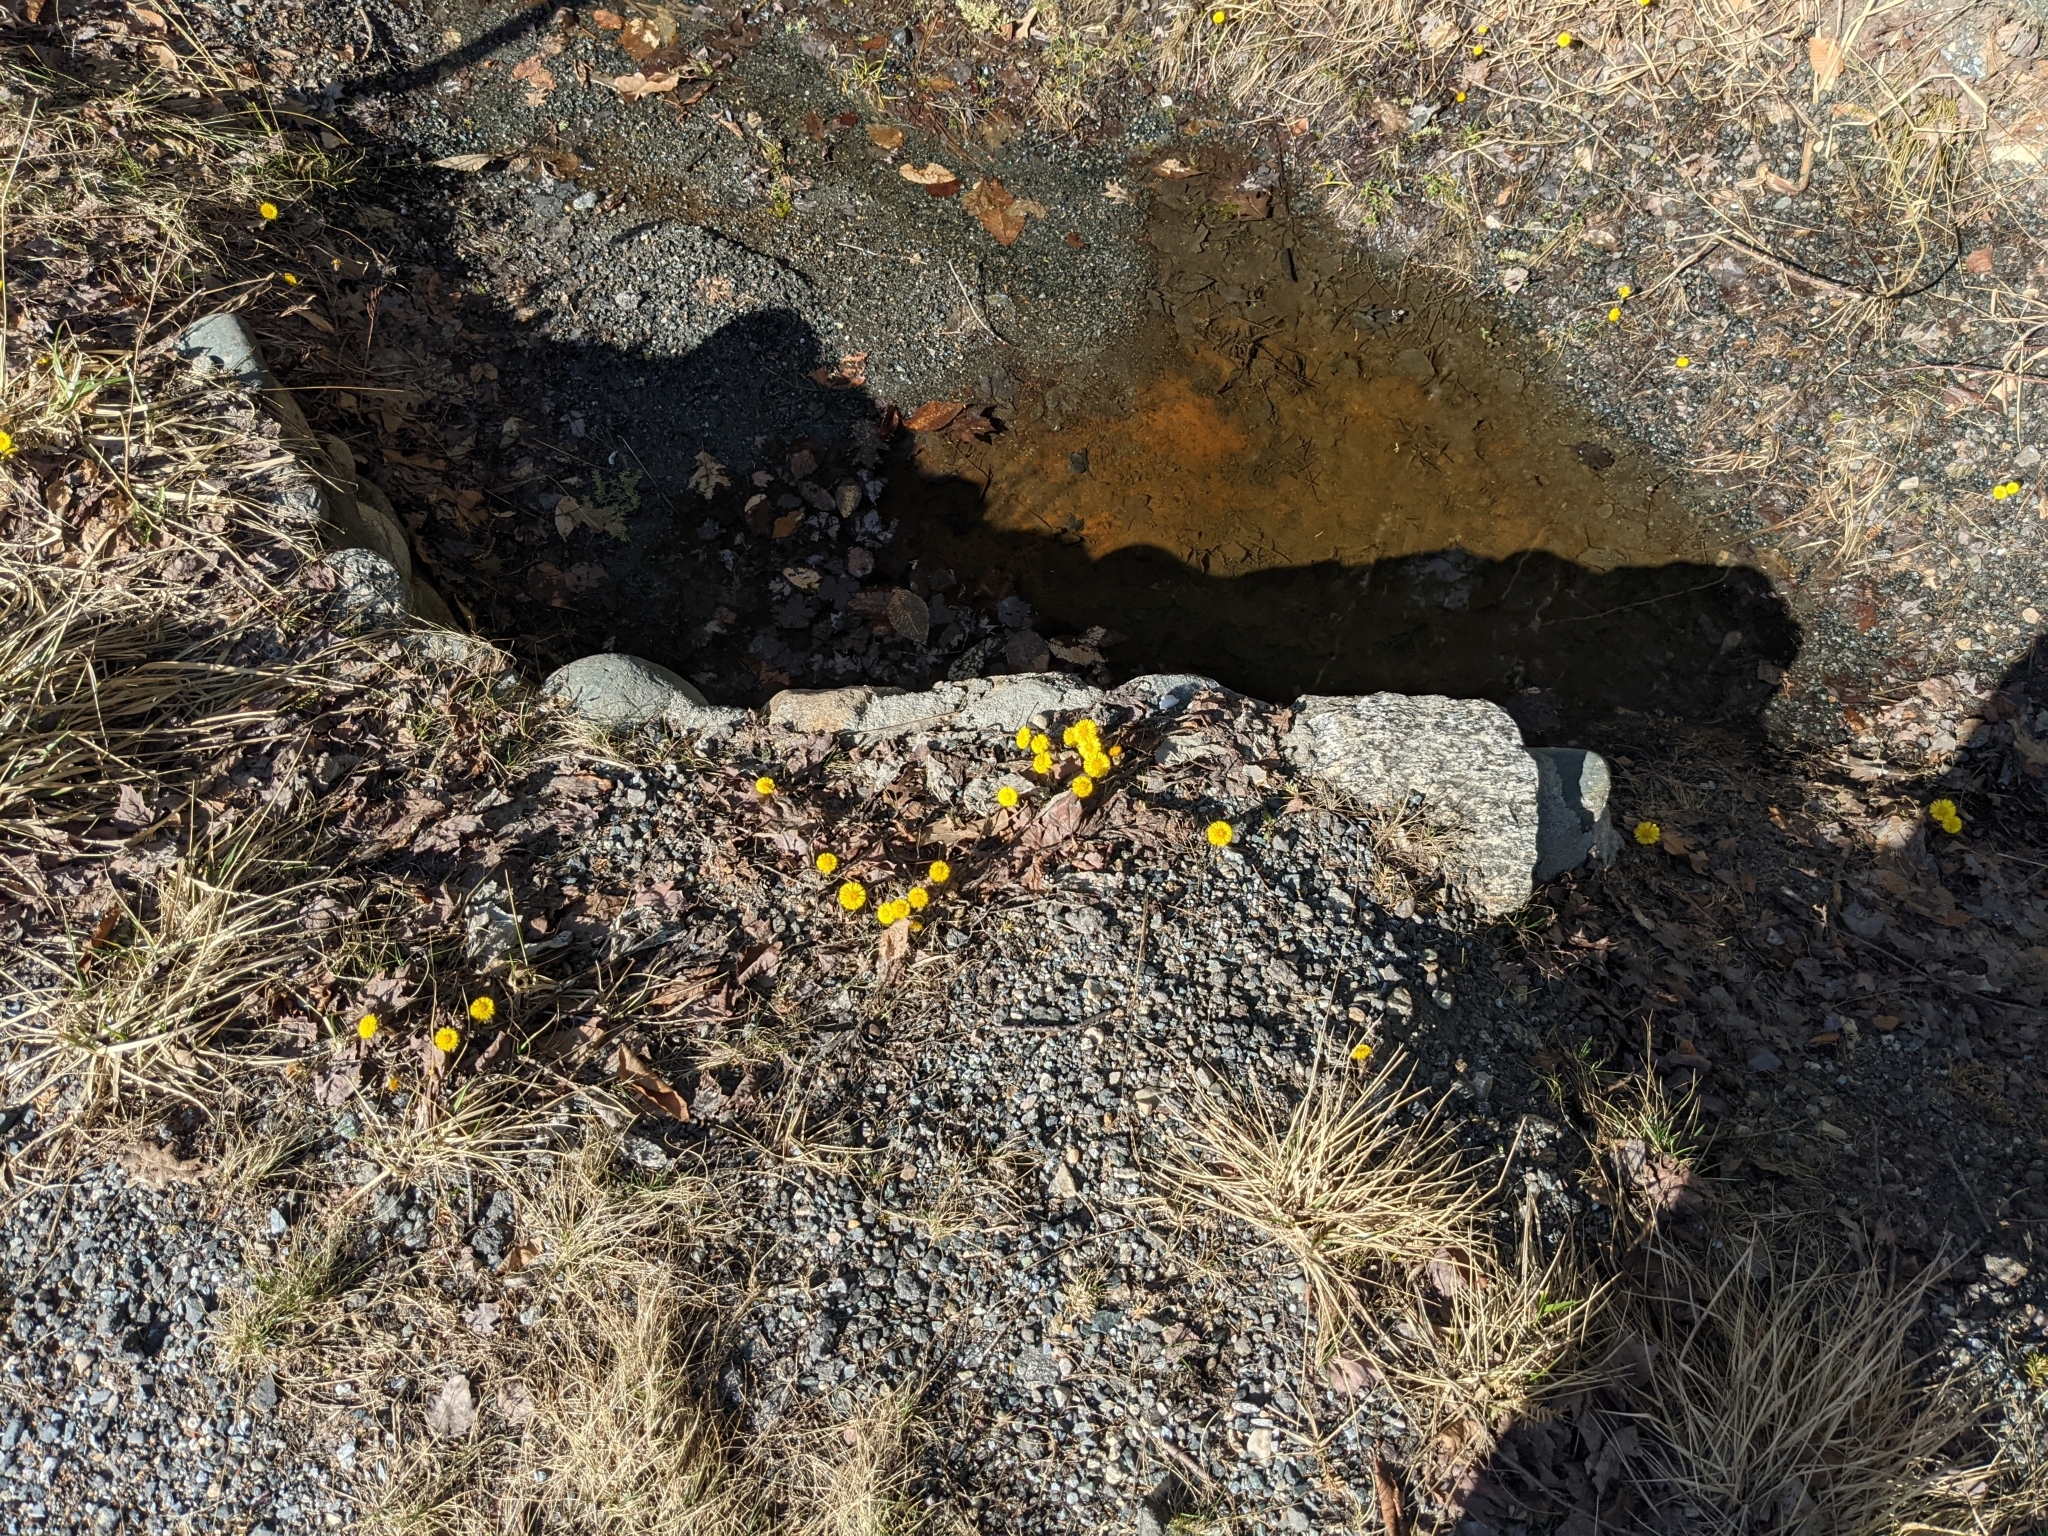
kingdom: Plantae
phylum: Tracheophyta
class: Magnoliopsida
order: Asterales
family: Asteraceae
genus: Tussilago
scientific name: Tussilago farfara
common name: Coltsfoot
